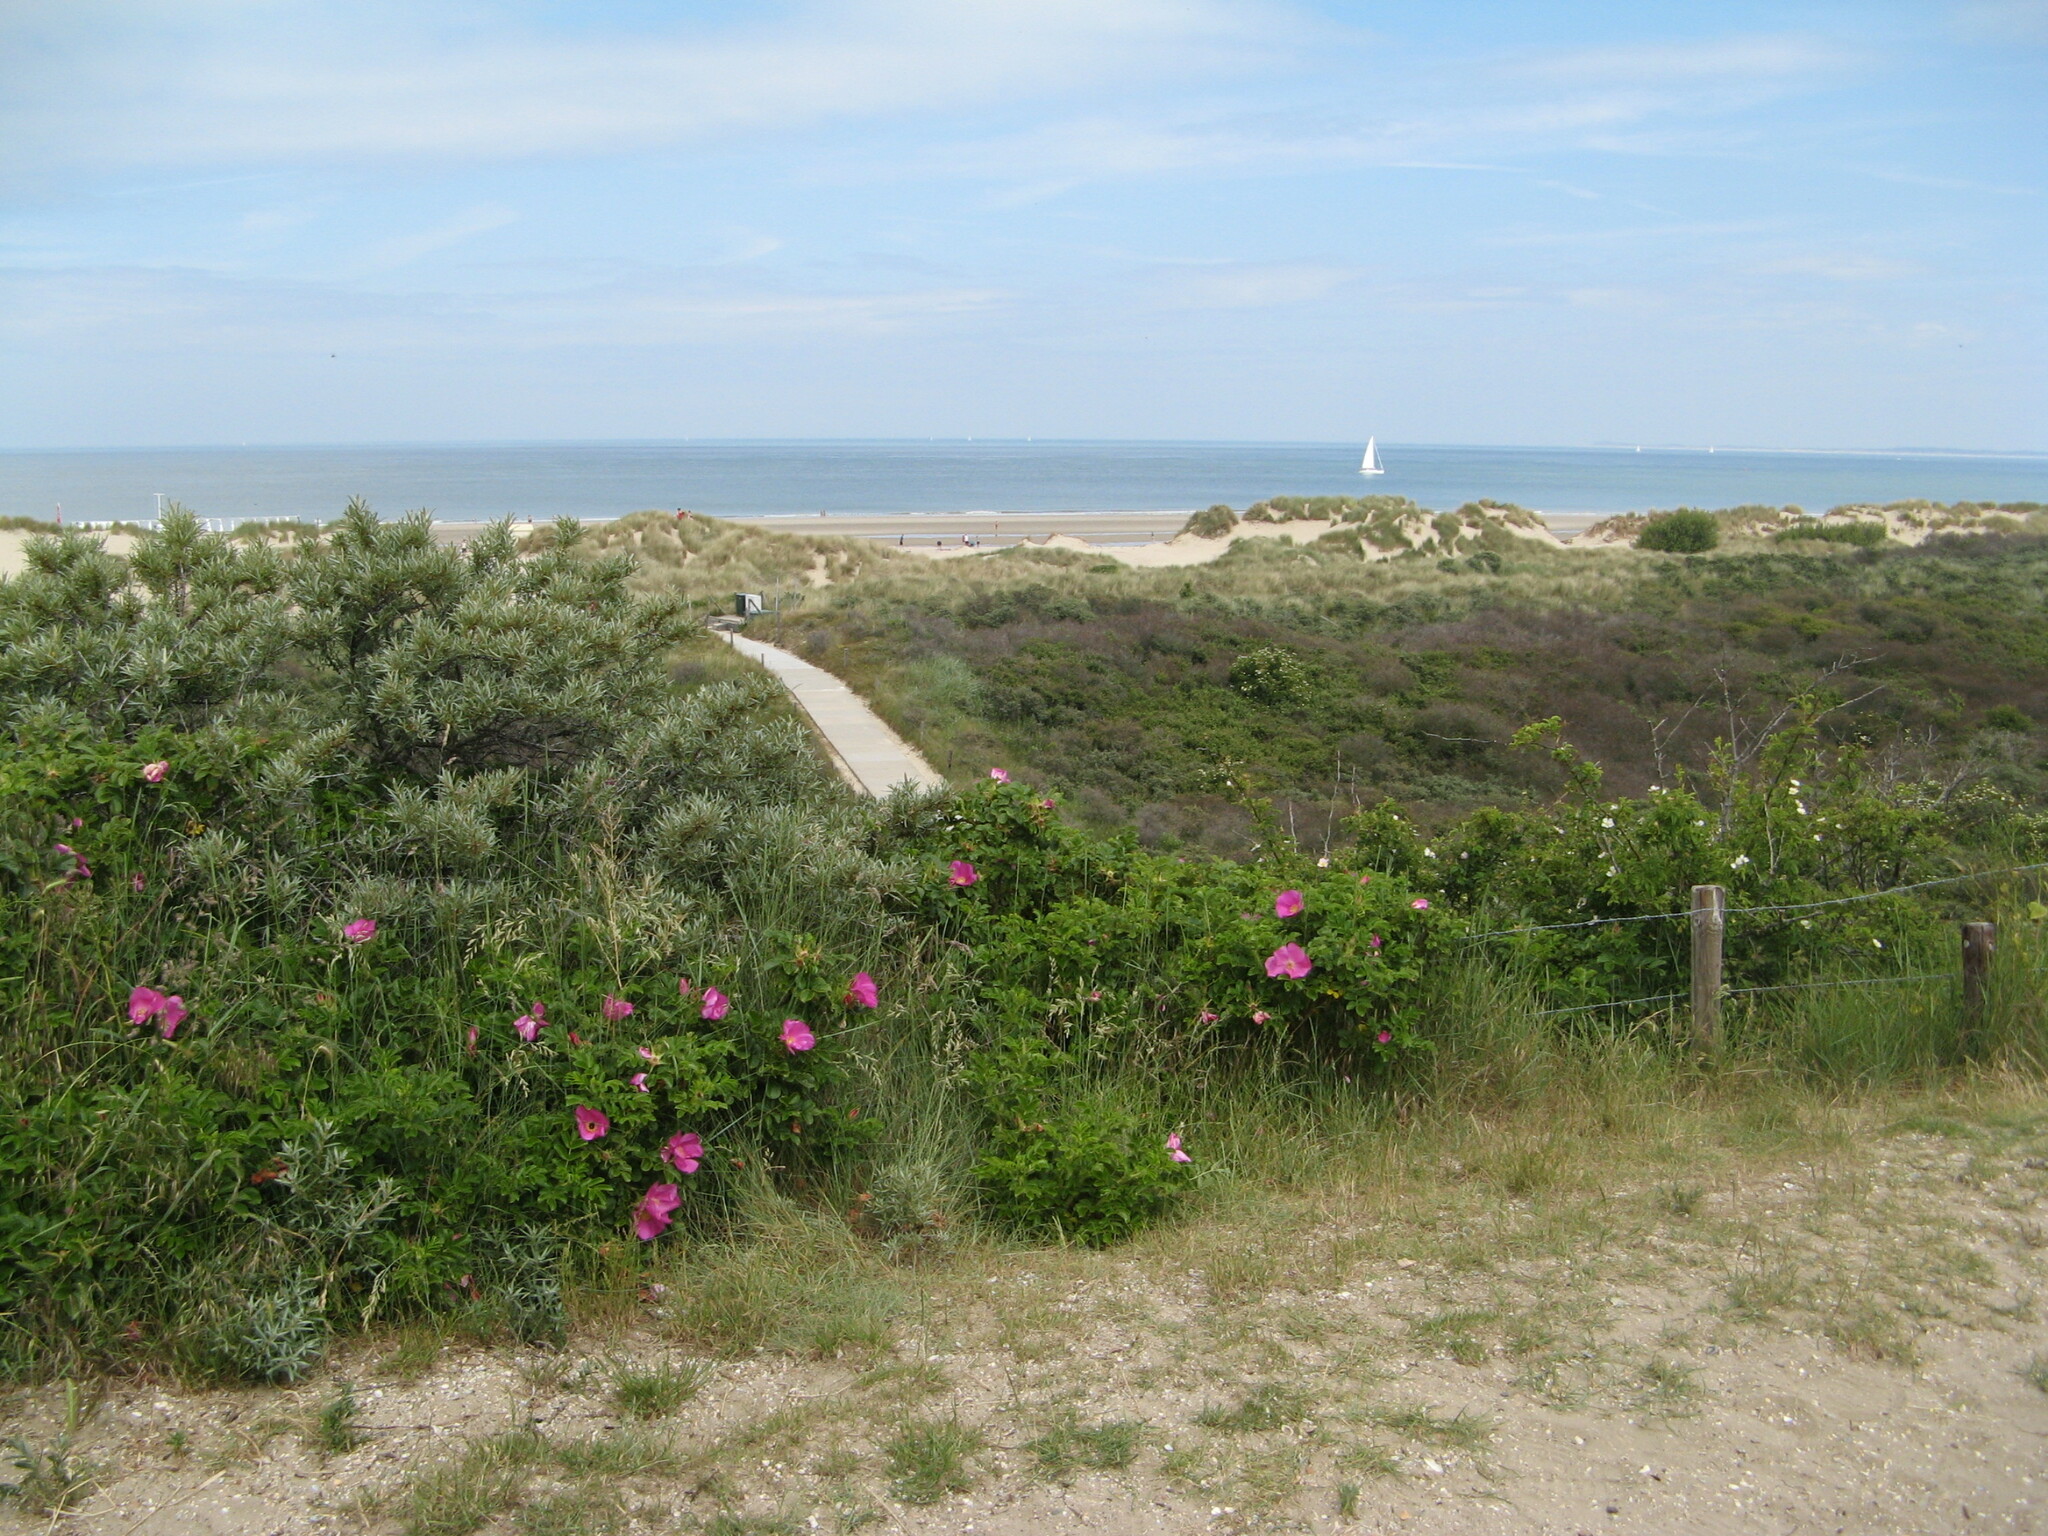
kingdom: Plantae
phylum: Tracheophyta
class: Magnoliopsida
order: Rosales
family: Rosaceae
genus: Rosa
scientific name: Rosa rugosa
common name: Japanese rose
